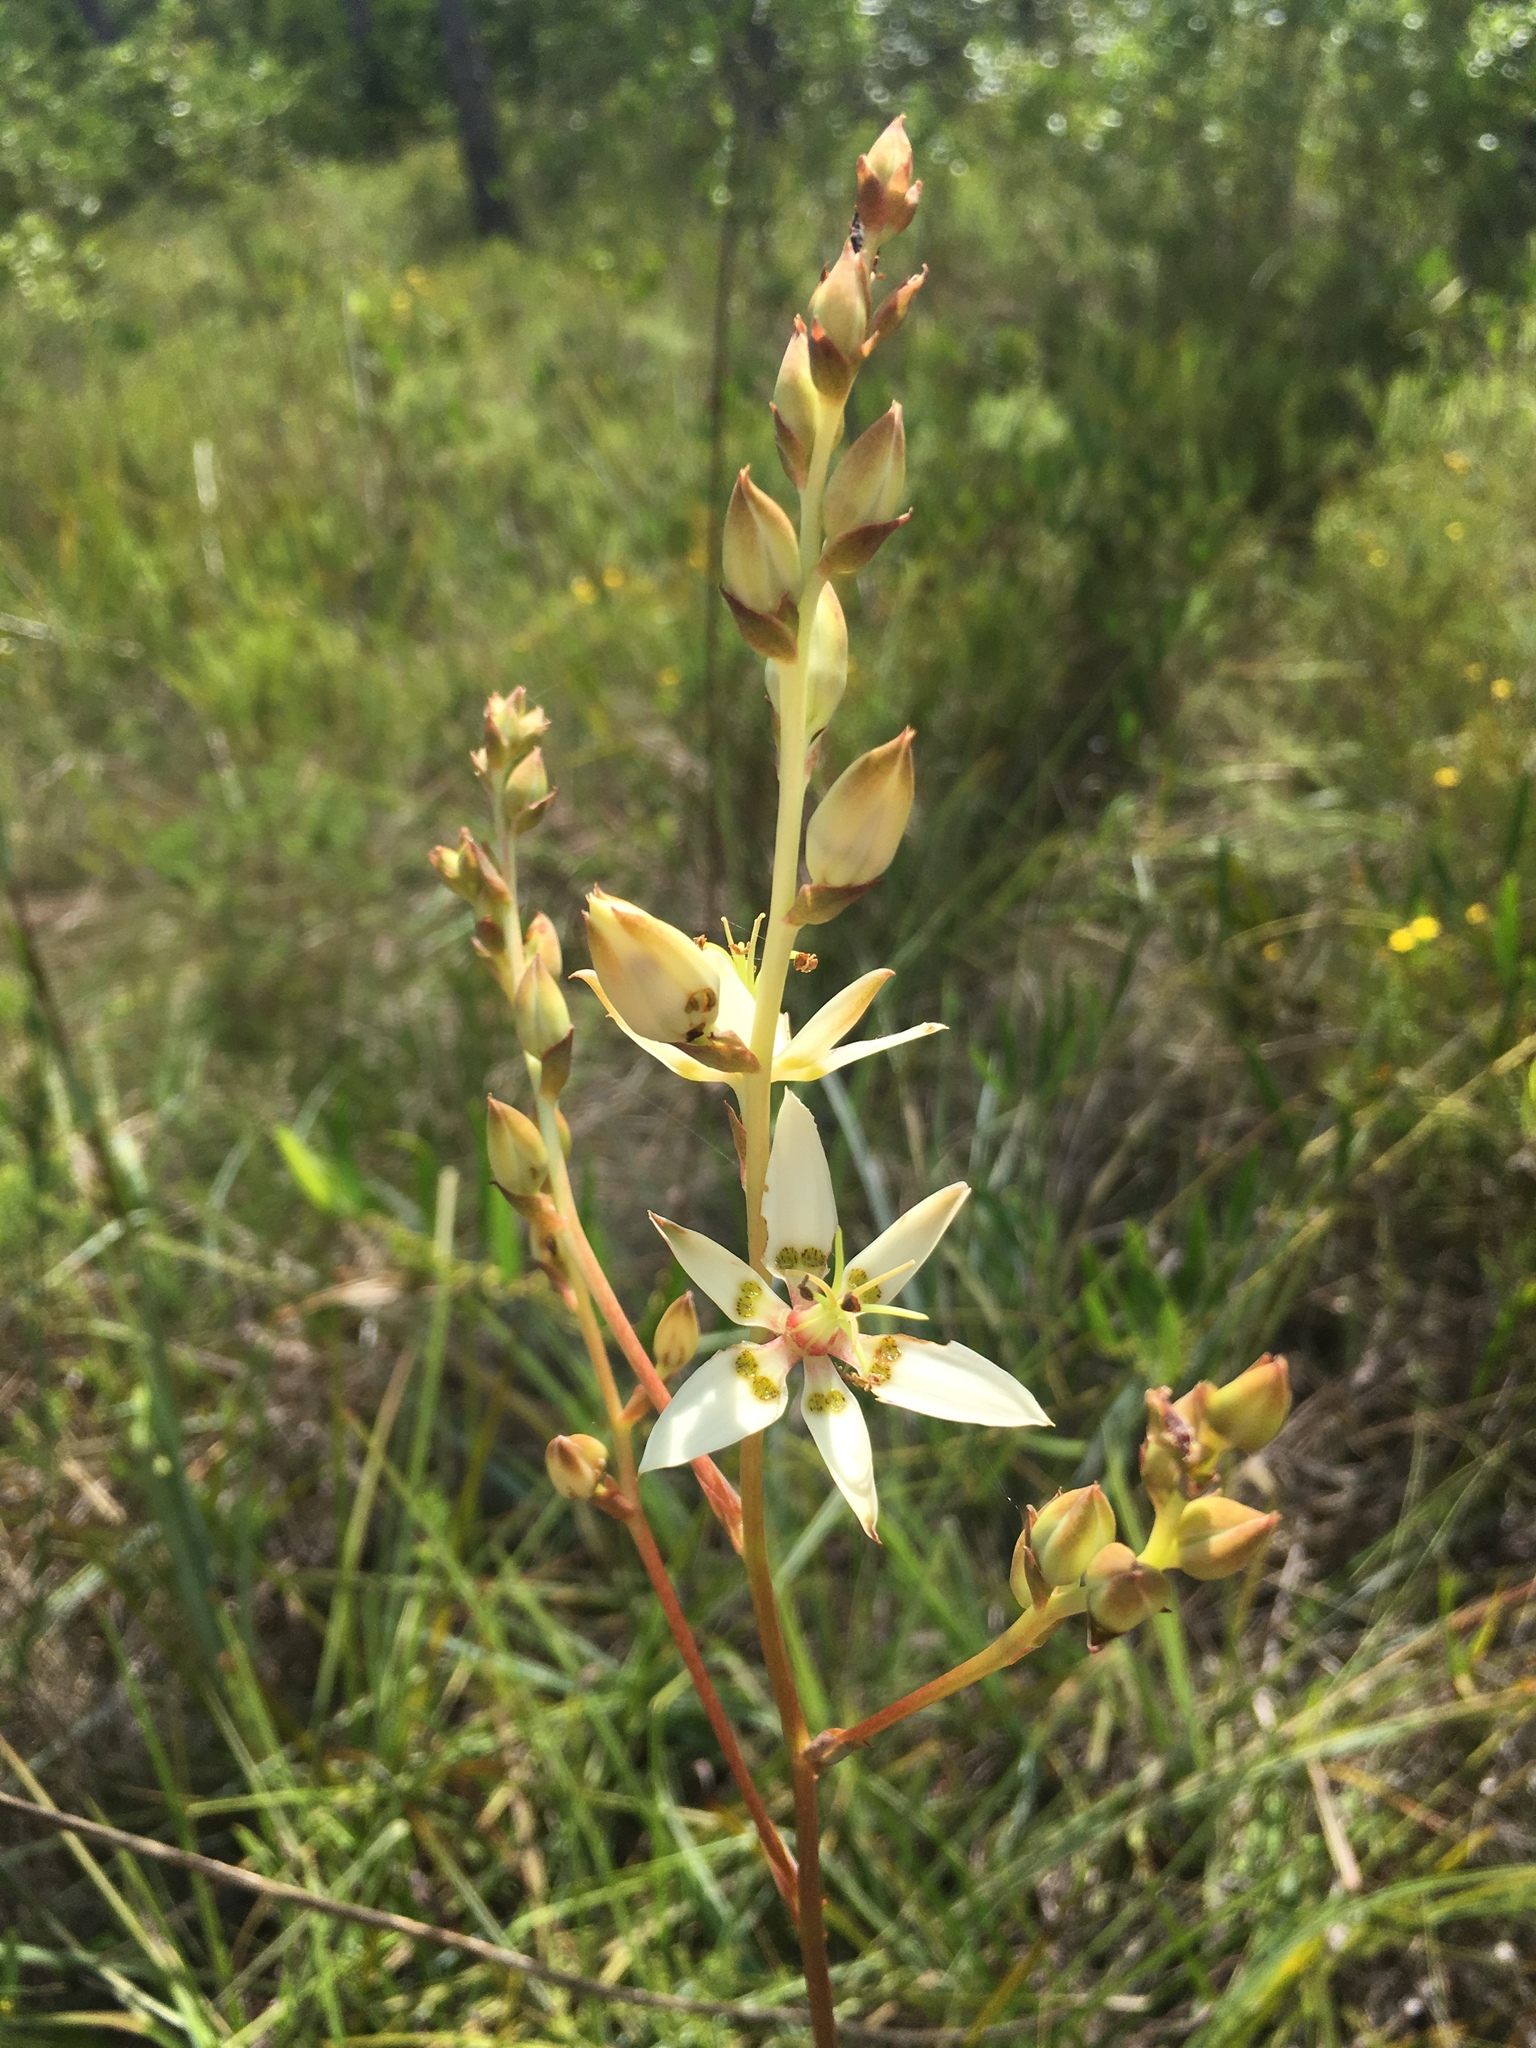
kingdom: Plantae
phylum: Tracheophyta
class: Liliopsida
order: Liliales
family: Melanthiaceae
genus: Zigadenus
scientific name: Zigadenus glaberrimus
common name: Sandbog death camas
